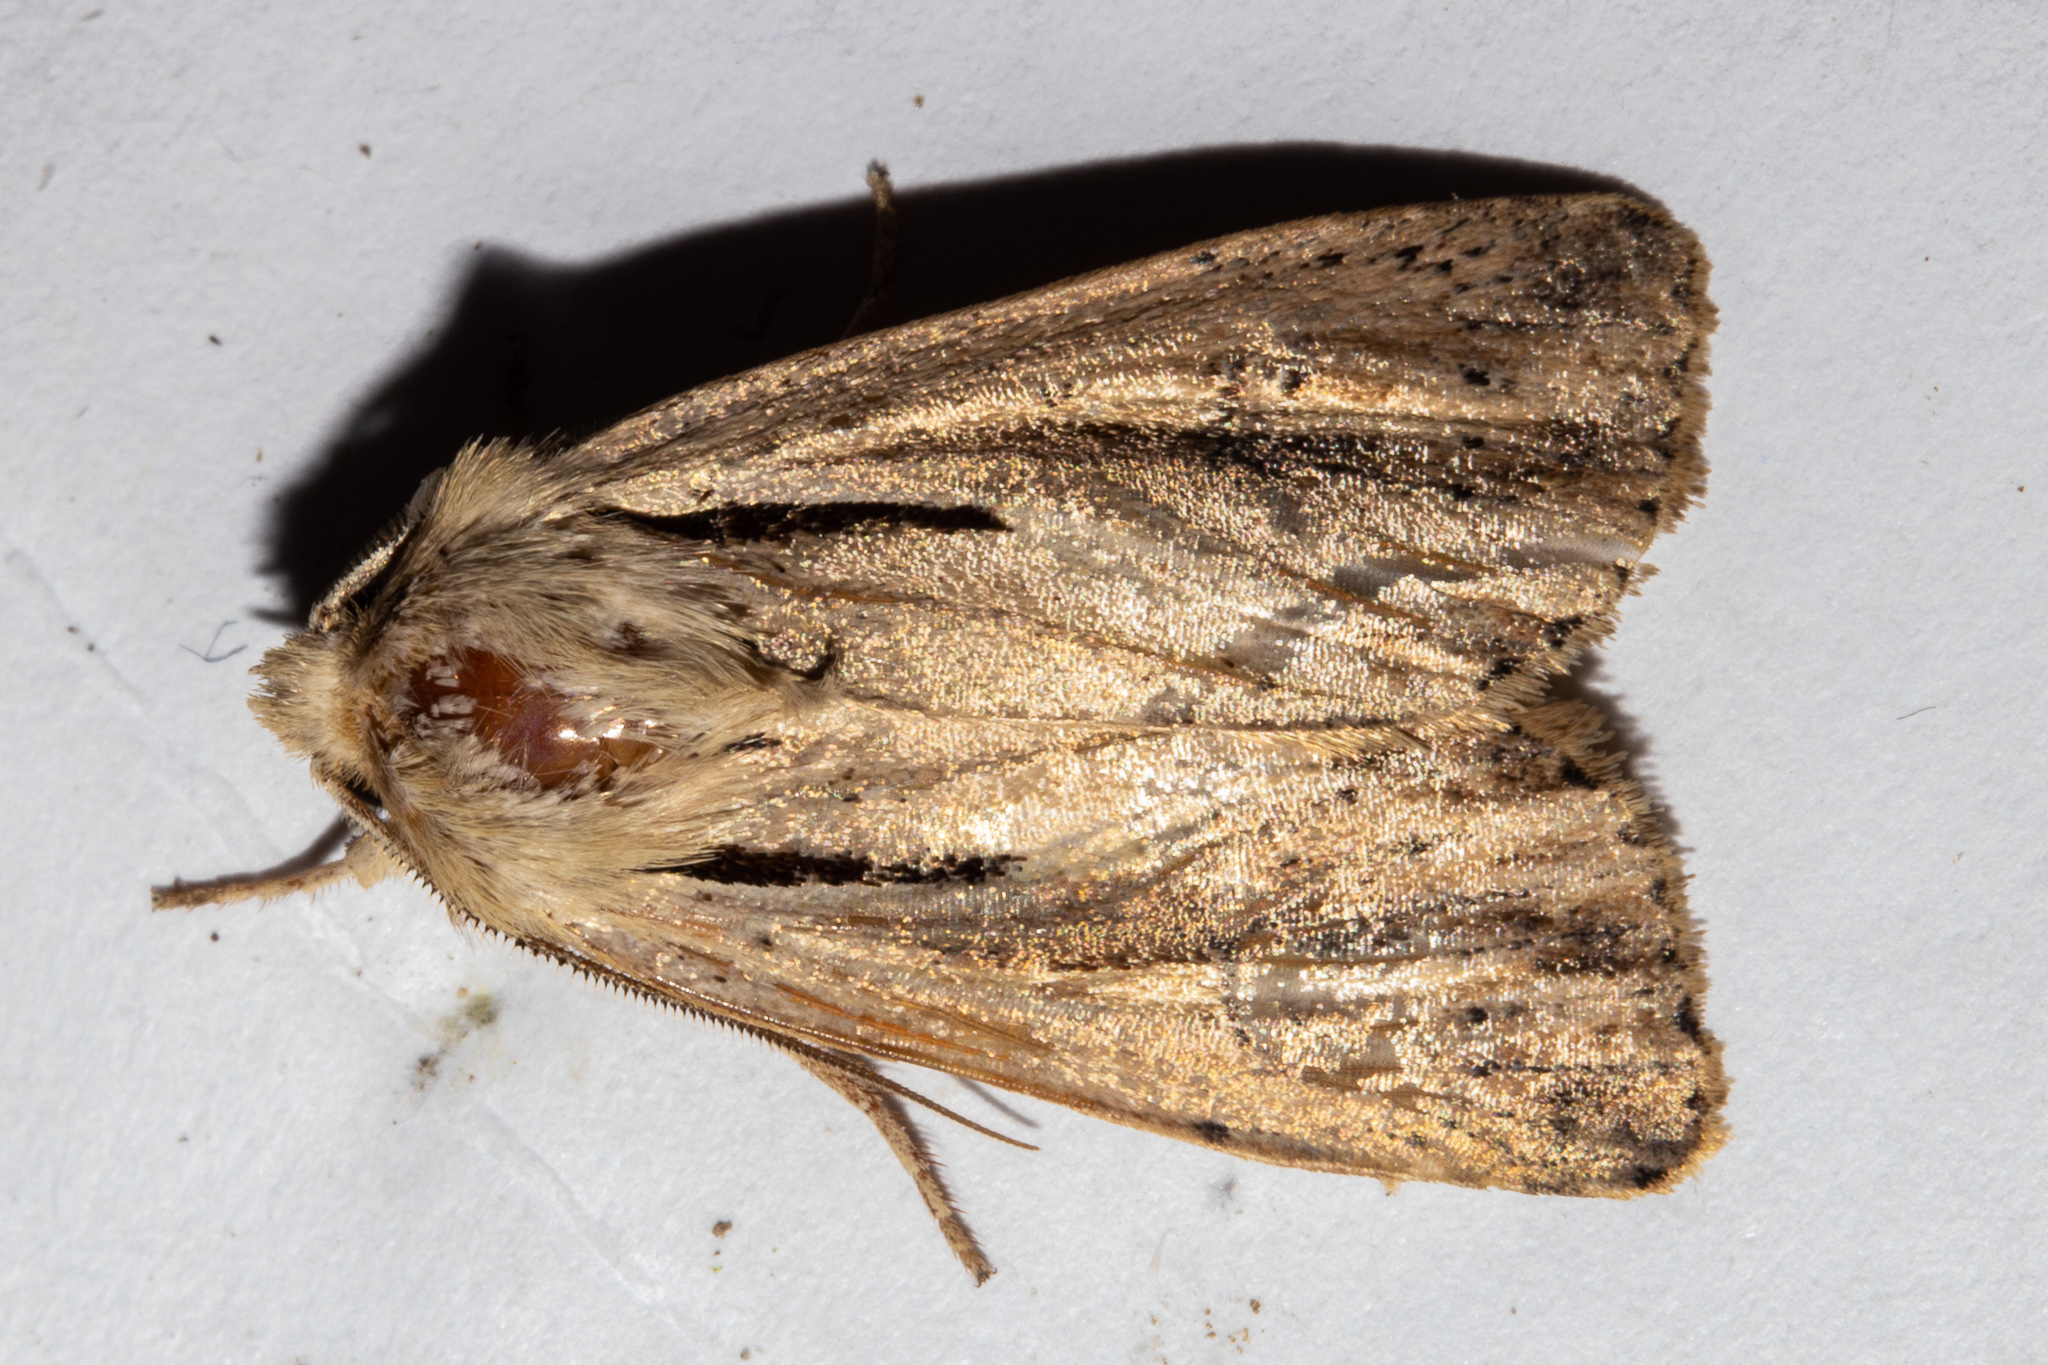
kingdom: Animalia
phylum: Arthropoda
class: Insecta
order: Lepidoptera
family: Noctuidae
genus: Ichneutica
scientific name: Ichneutica propria
